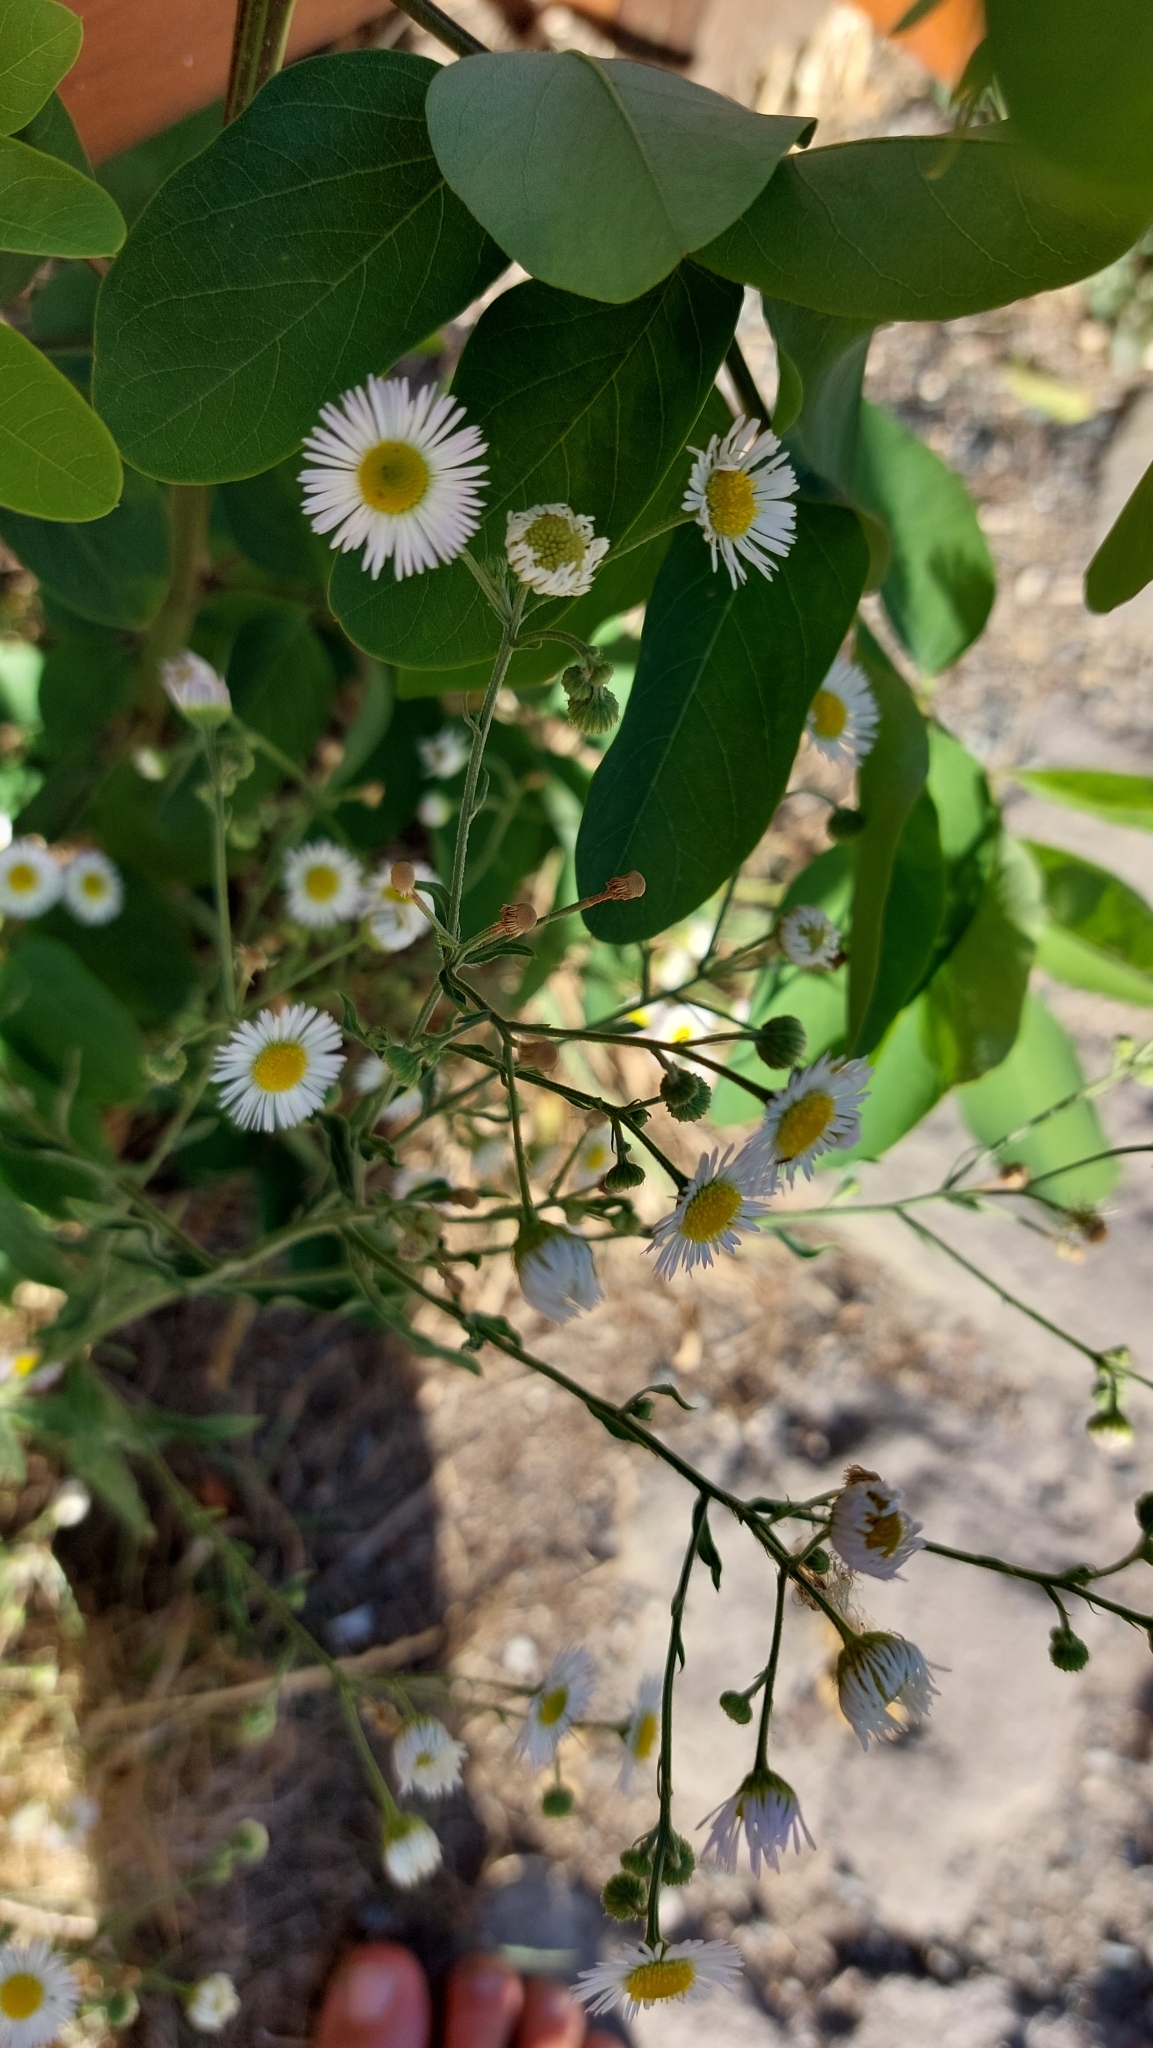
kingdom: Plantae
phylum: Tracheophyta
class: Magnoliopsida
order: Asterales
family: Asteraceae
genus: Erigeron
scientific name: Erigeron annuus
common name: Tall fleabane
